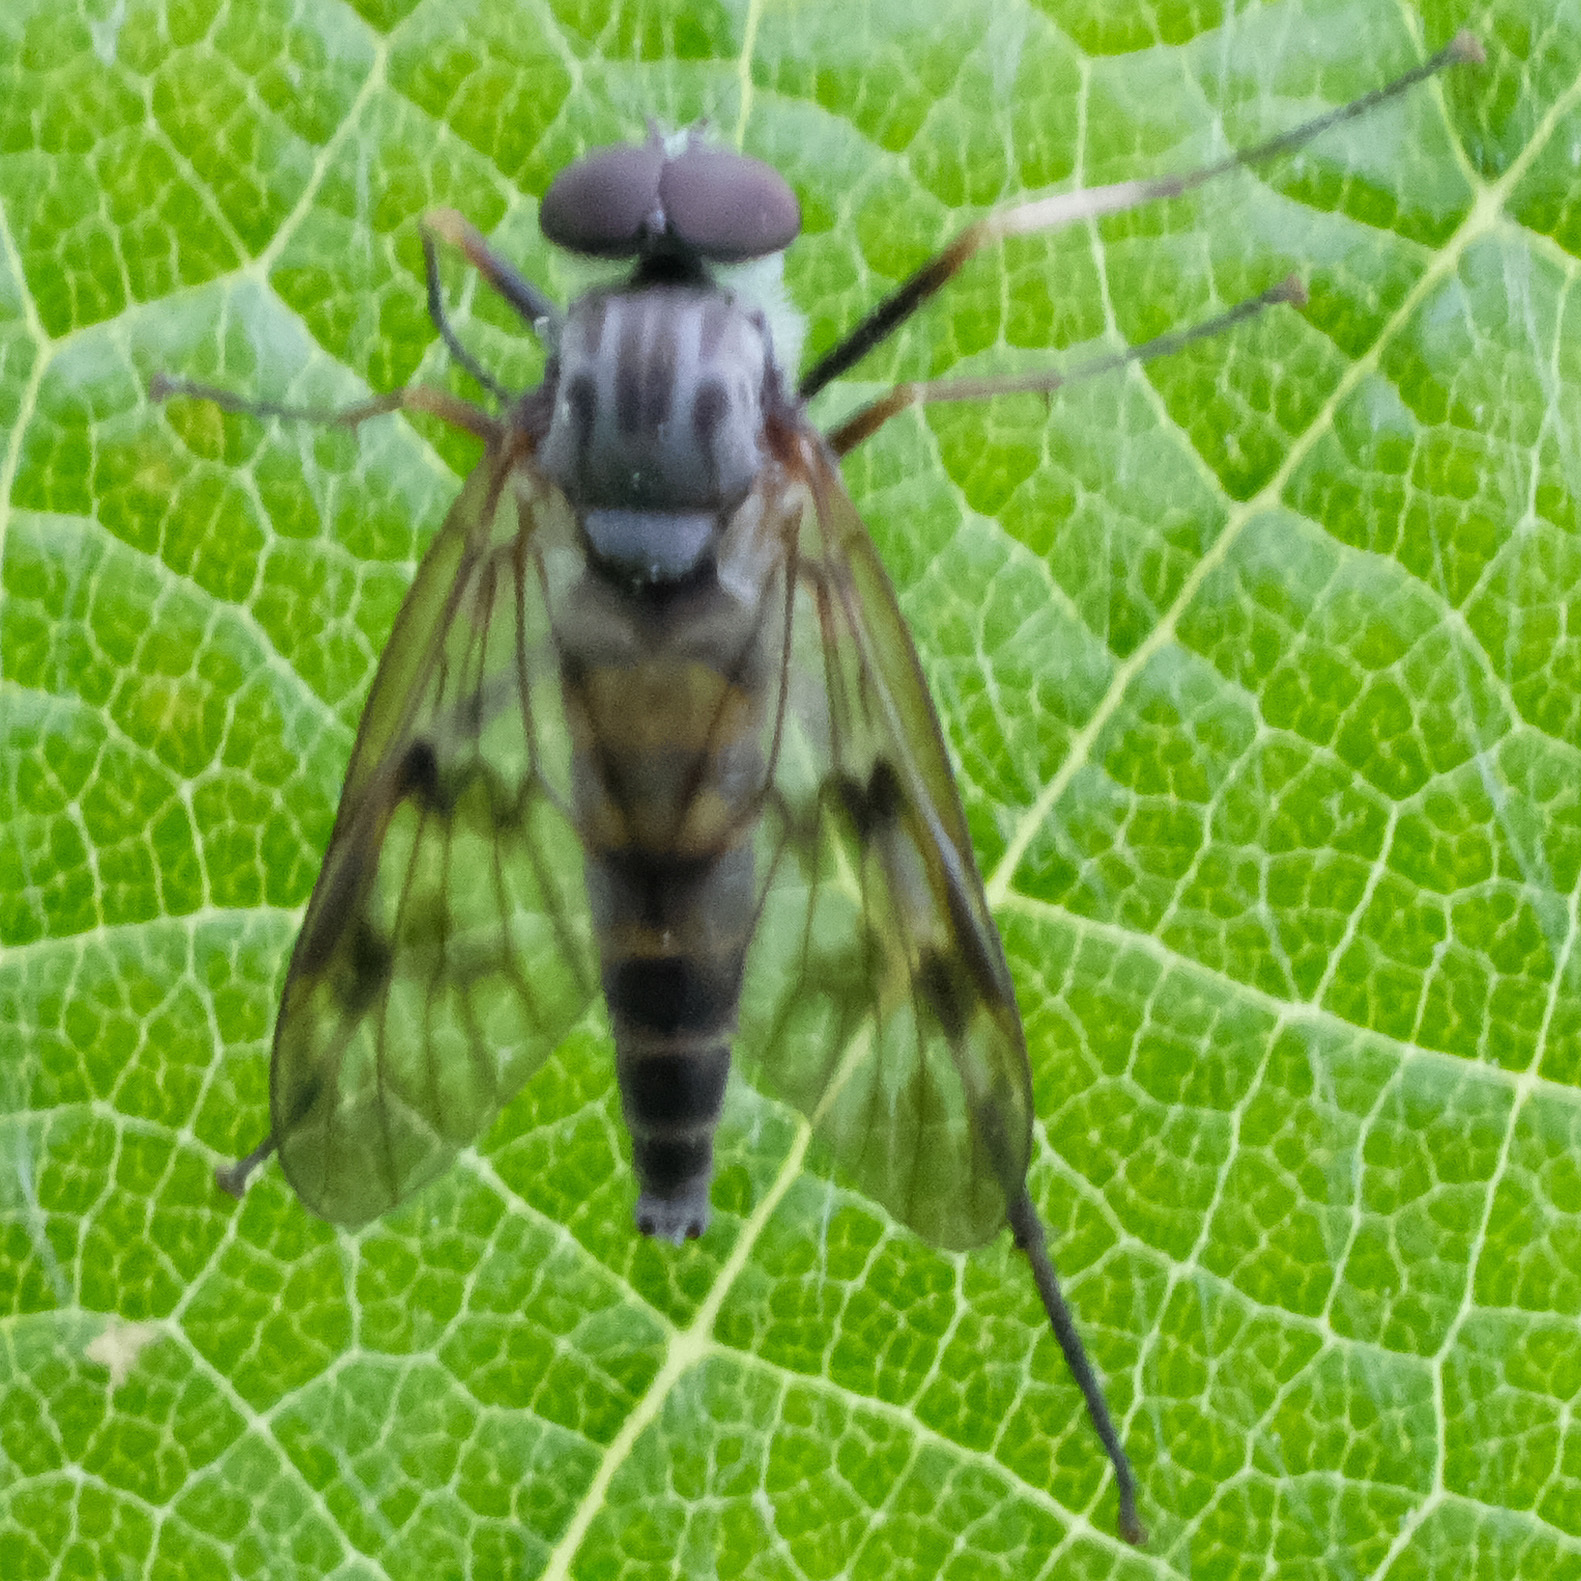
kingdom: Animalia
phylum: Arthropoda
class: Insecta
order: Diptera
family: Rhagionidae
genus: Rhagio
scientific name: Rhagio mystaceus
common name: Common snipe fly
